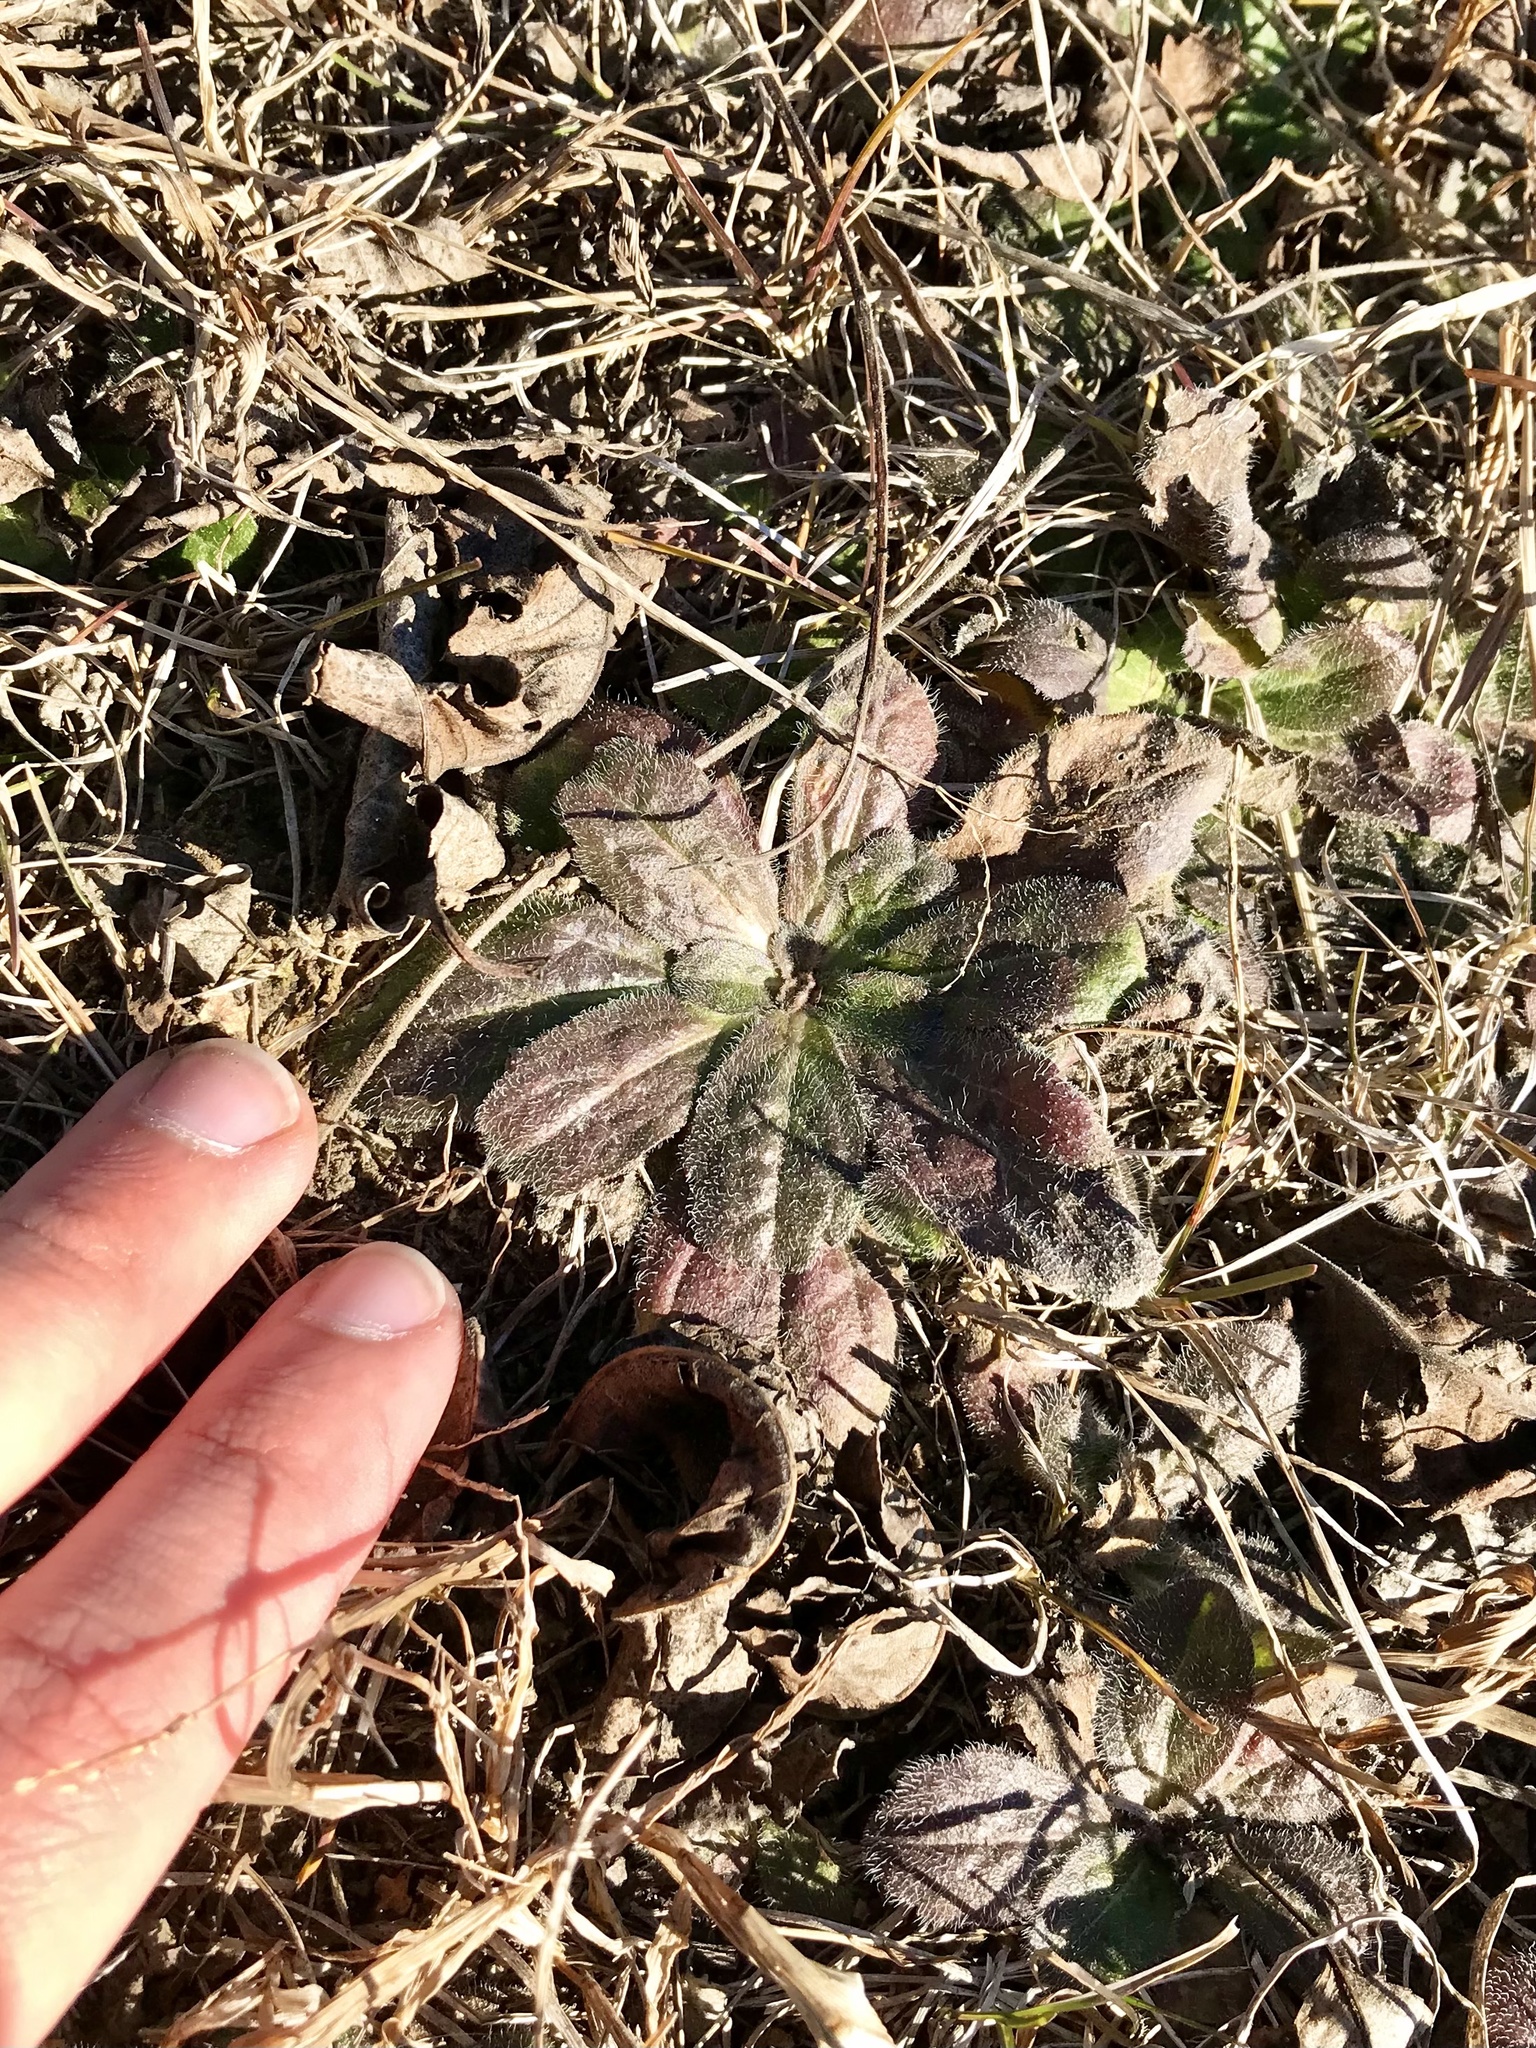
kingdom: Plantae
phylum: Tracheophyta
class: Magnoliopsida
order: Asterales
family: Asteraceae
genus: Erigeron
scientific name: Erigeron pulchellus
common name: Hairy fleabane
